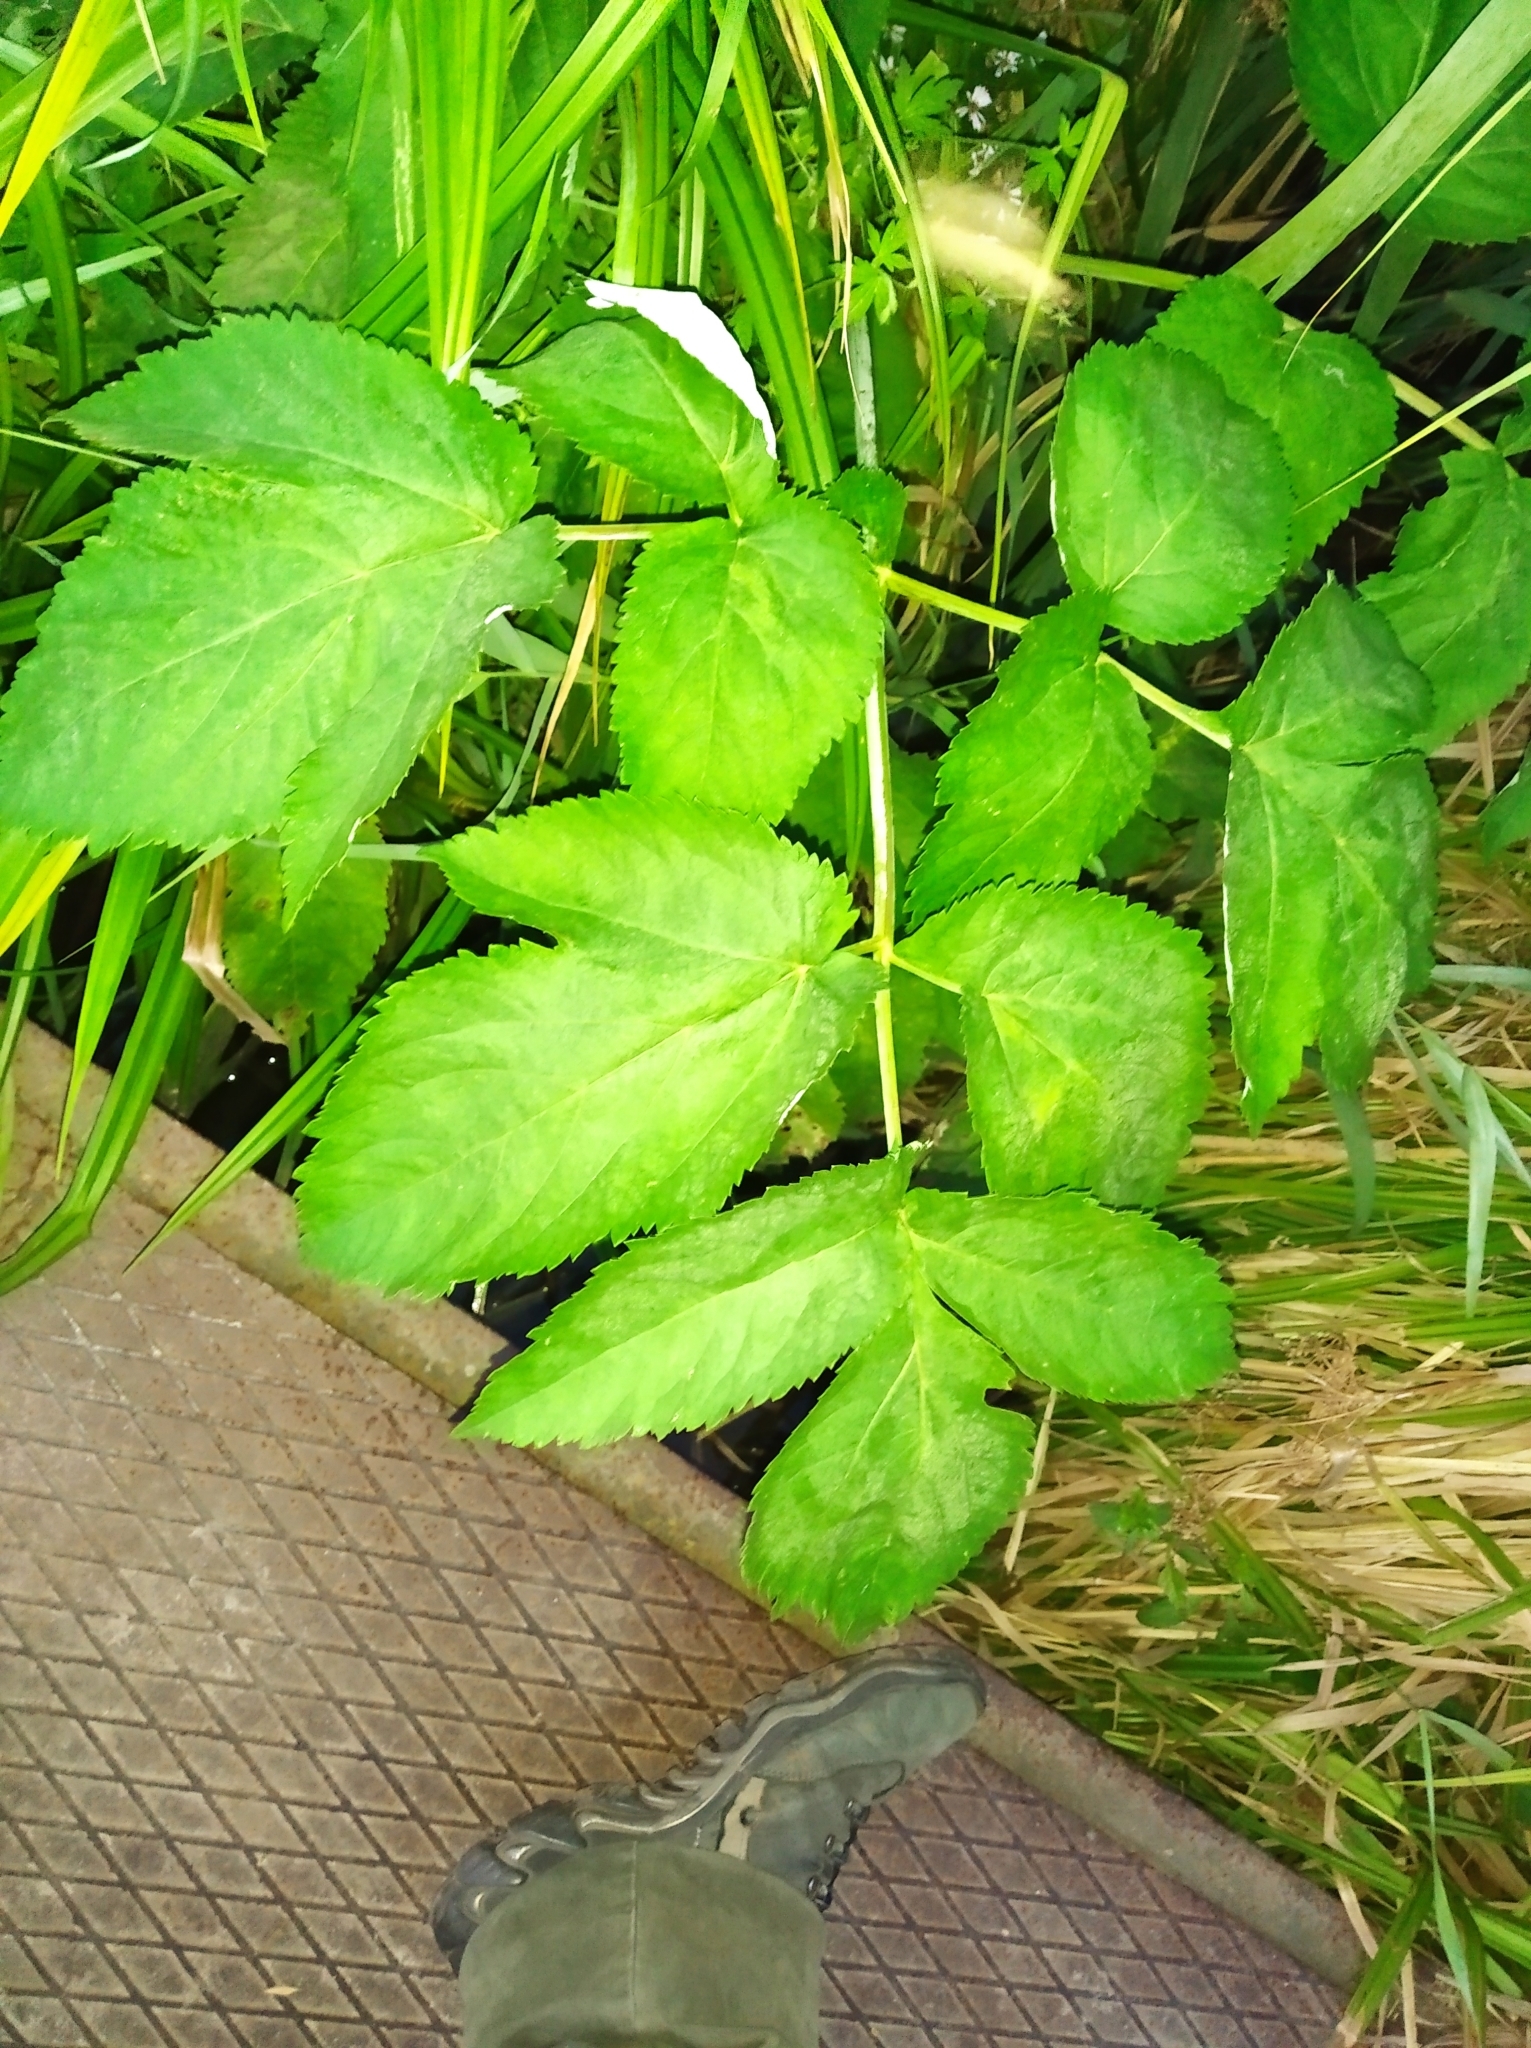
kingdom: Plantae
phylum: Tracheophyta
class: Magnoliopsida
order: Apiales
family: Apiaceae
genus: Angelica
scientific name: Angelica archangelica
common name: Garden angelica
